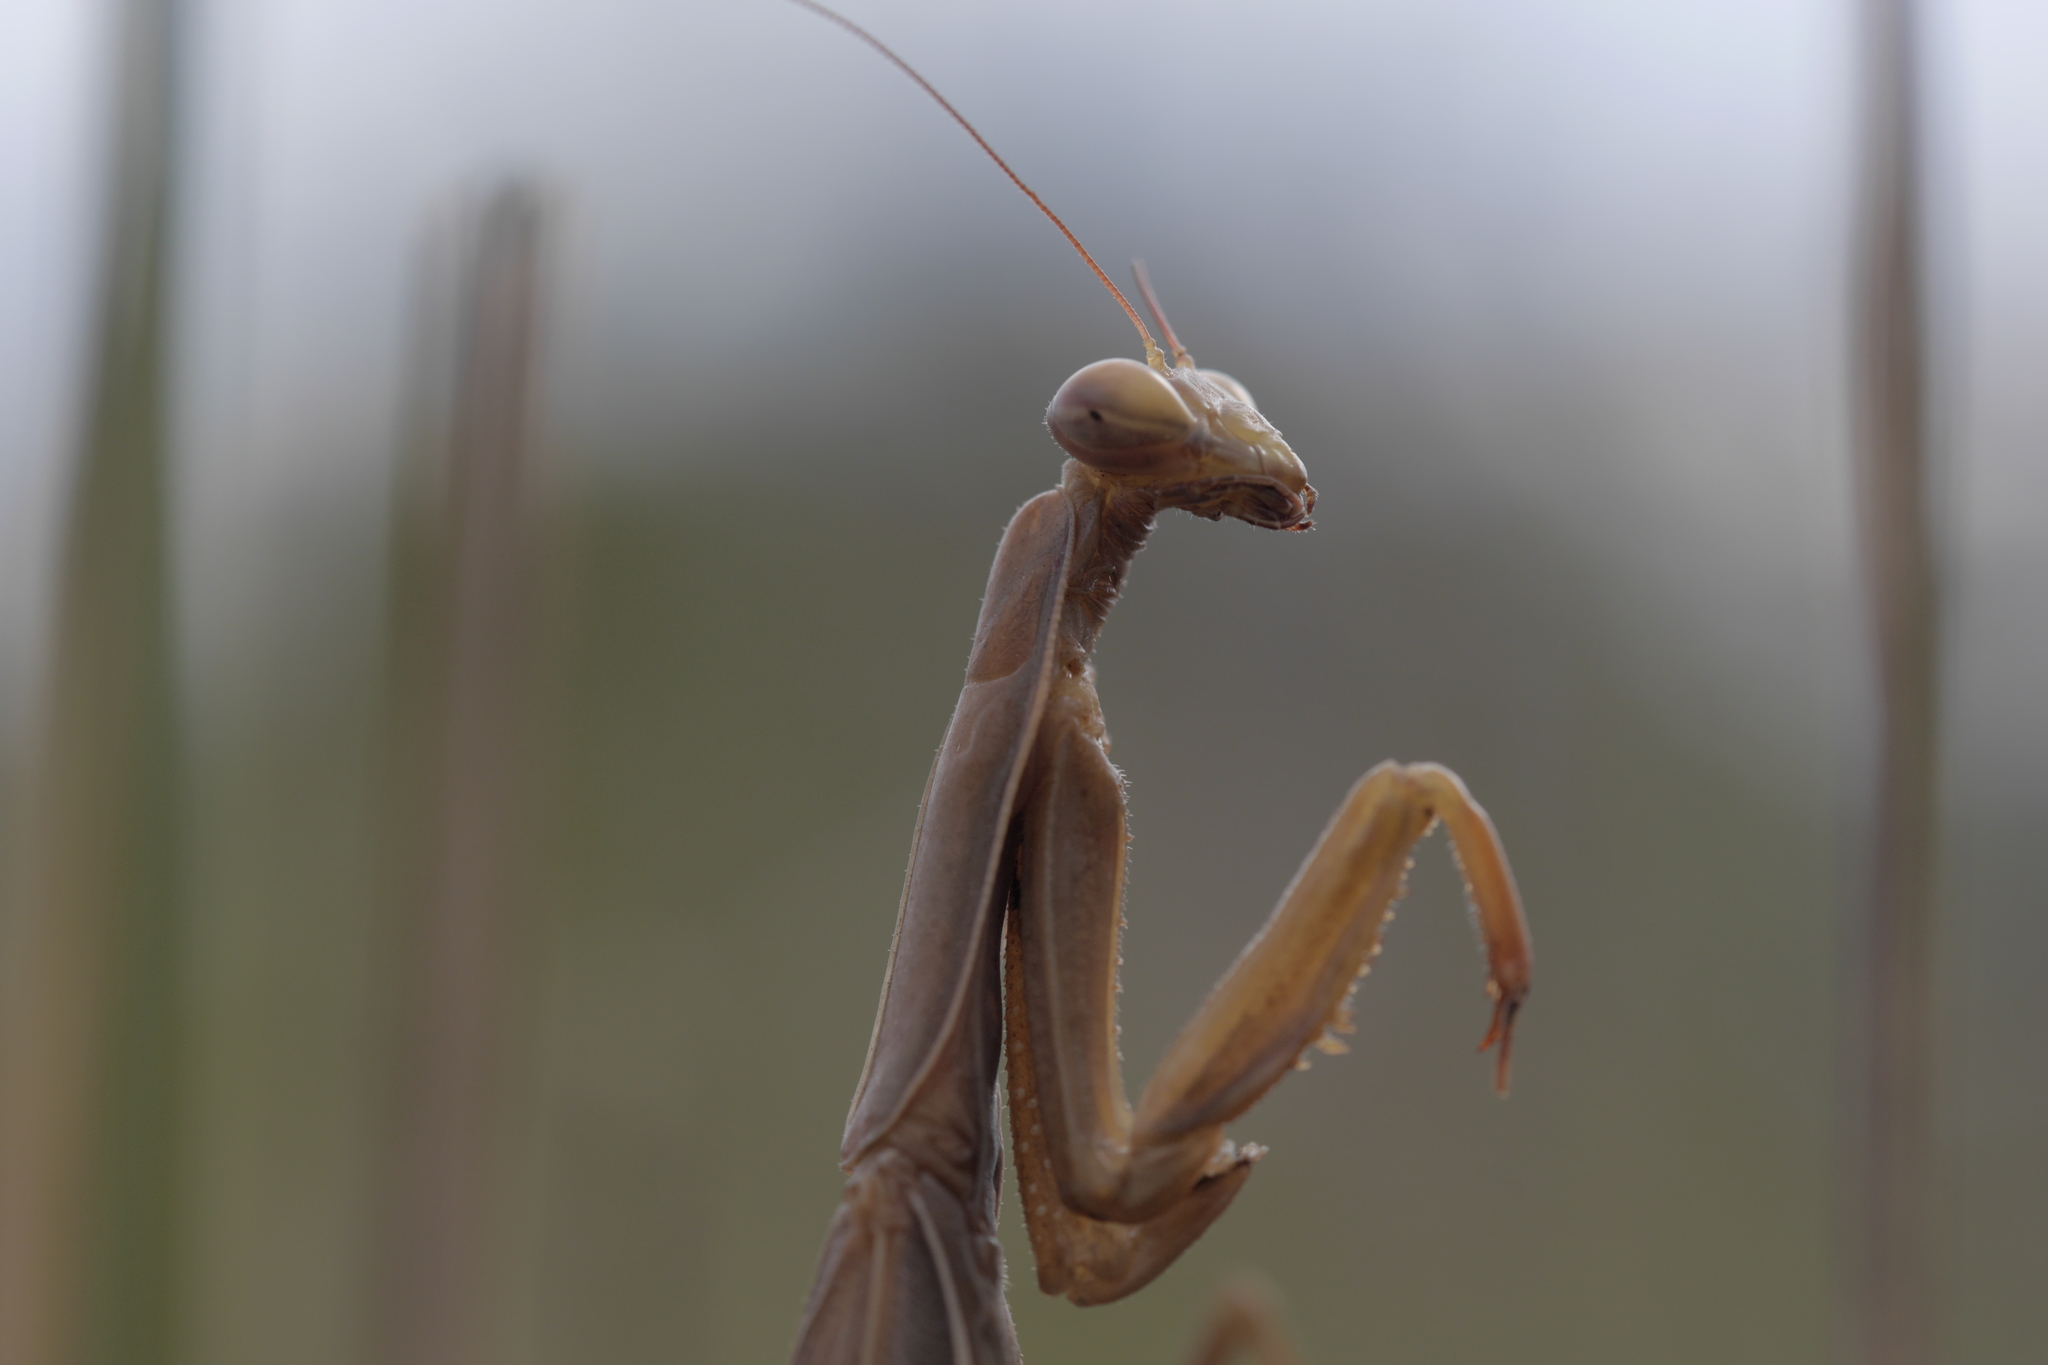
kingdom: Animalia
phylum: Arthropoda
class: Insecta
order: Mantodea
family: Mantidae
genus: Mantis
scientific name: Mantis religiosa
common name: Praying mantis
